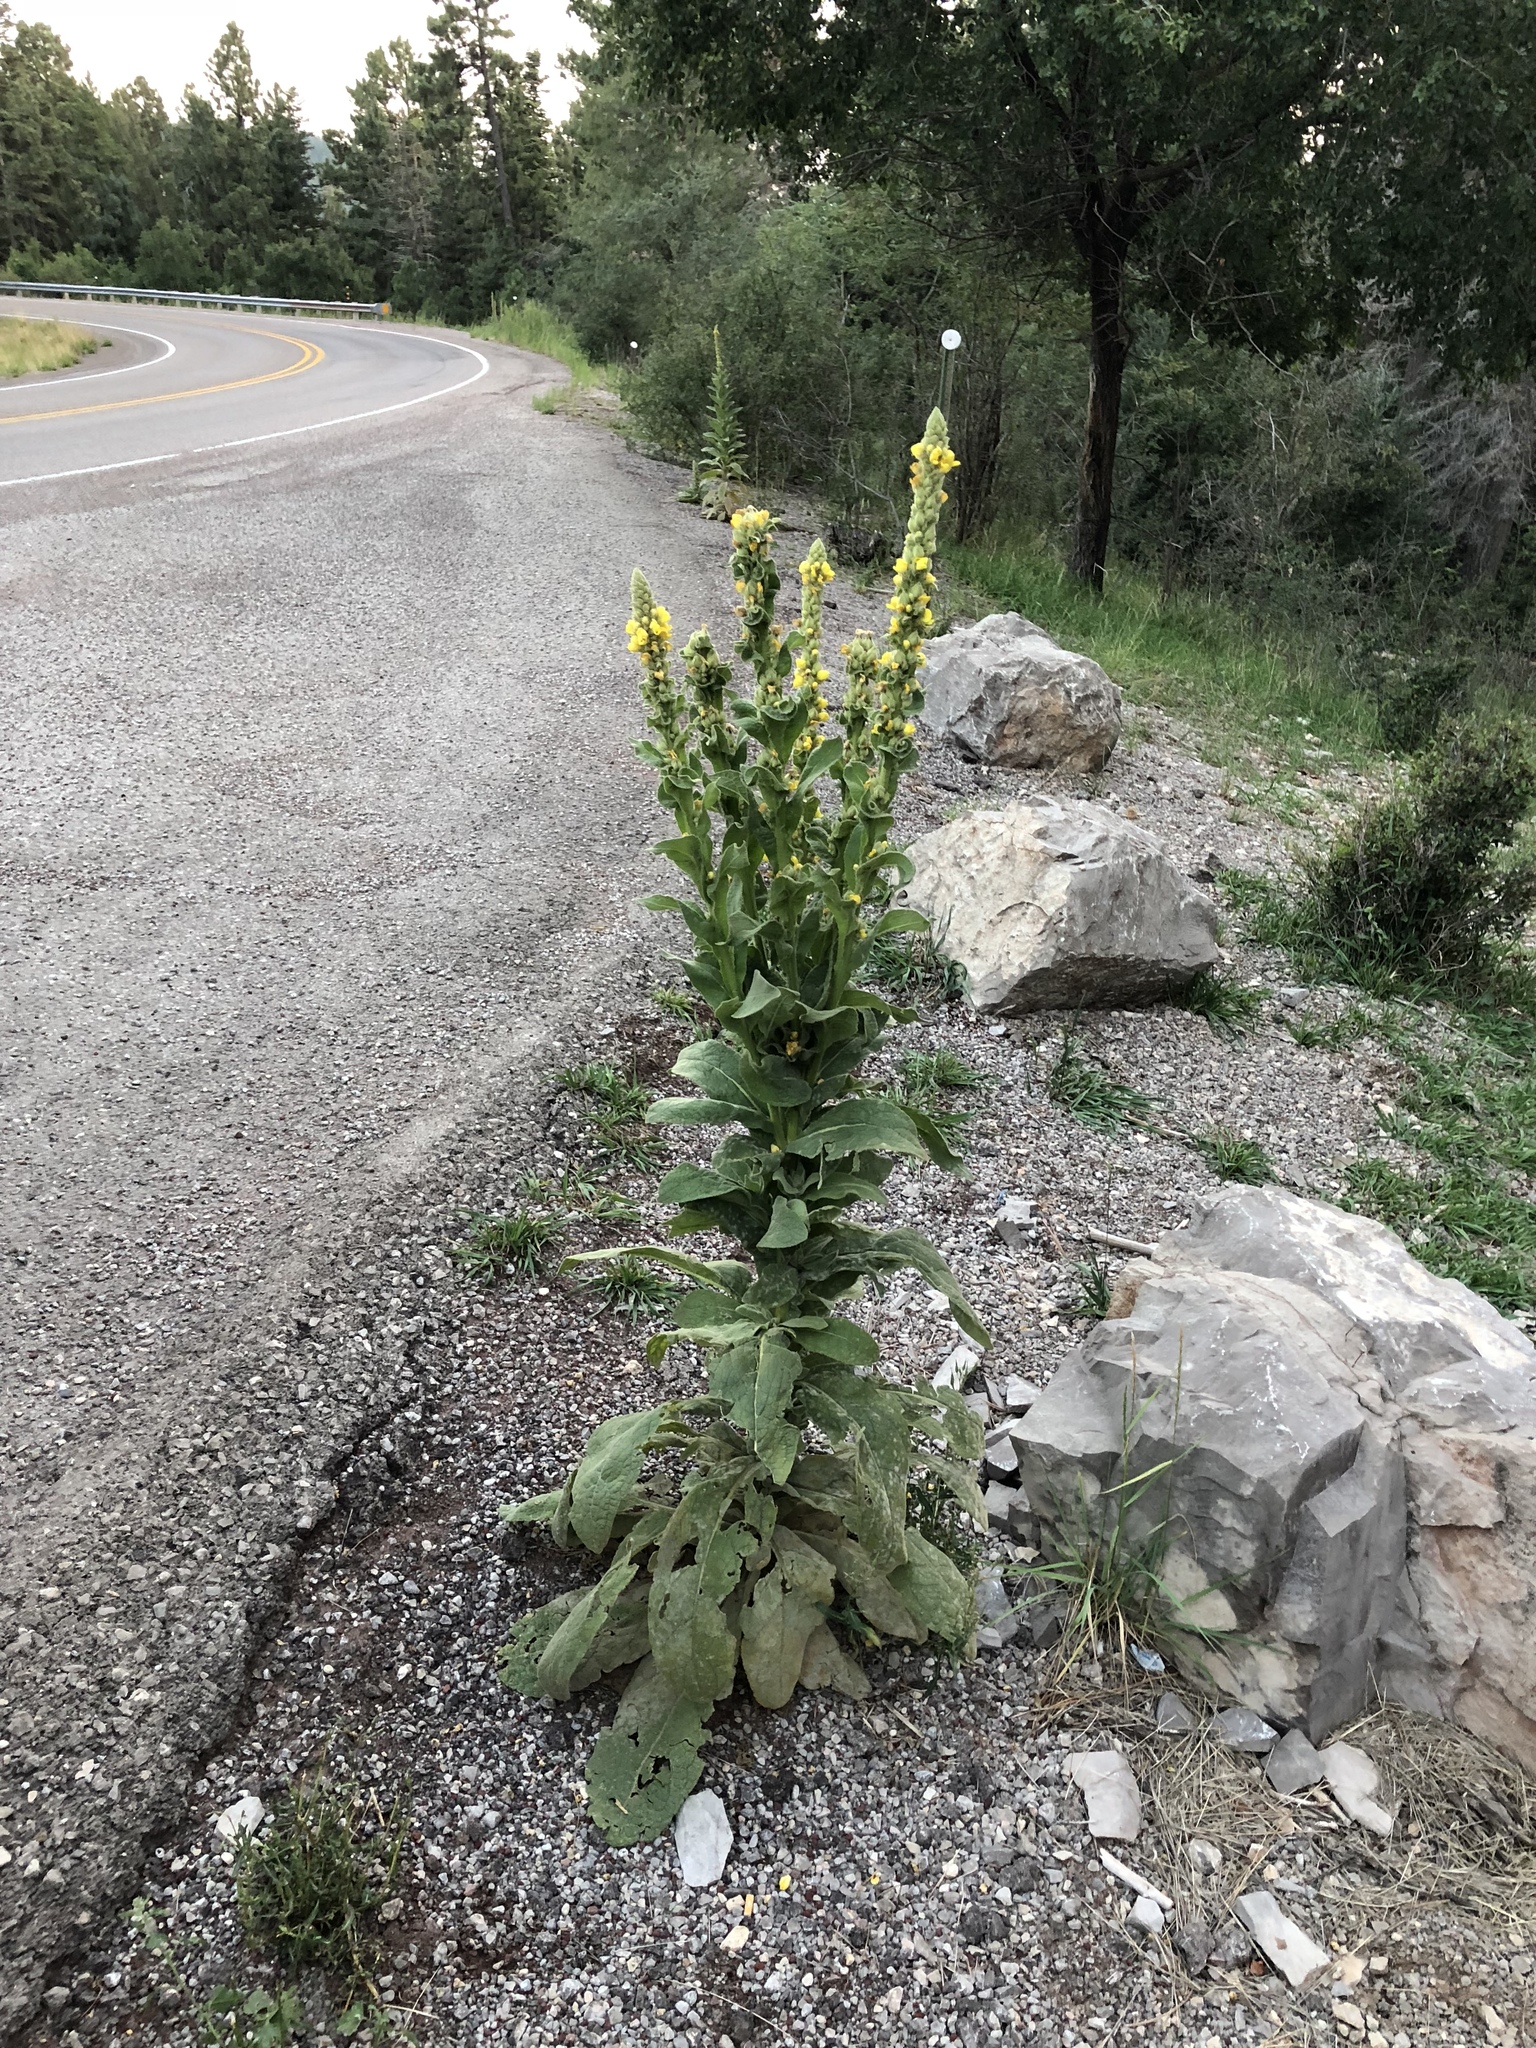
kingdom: Plantae
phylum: Tracheophyta
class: Magnoliopsida
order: Lamiales
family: Scrophulariaceae
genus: Verbascum
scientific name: Verbascum thapsus
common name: Common mullein
